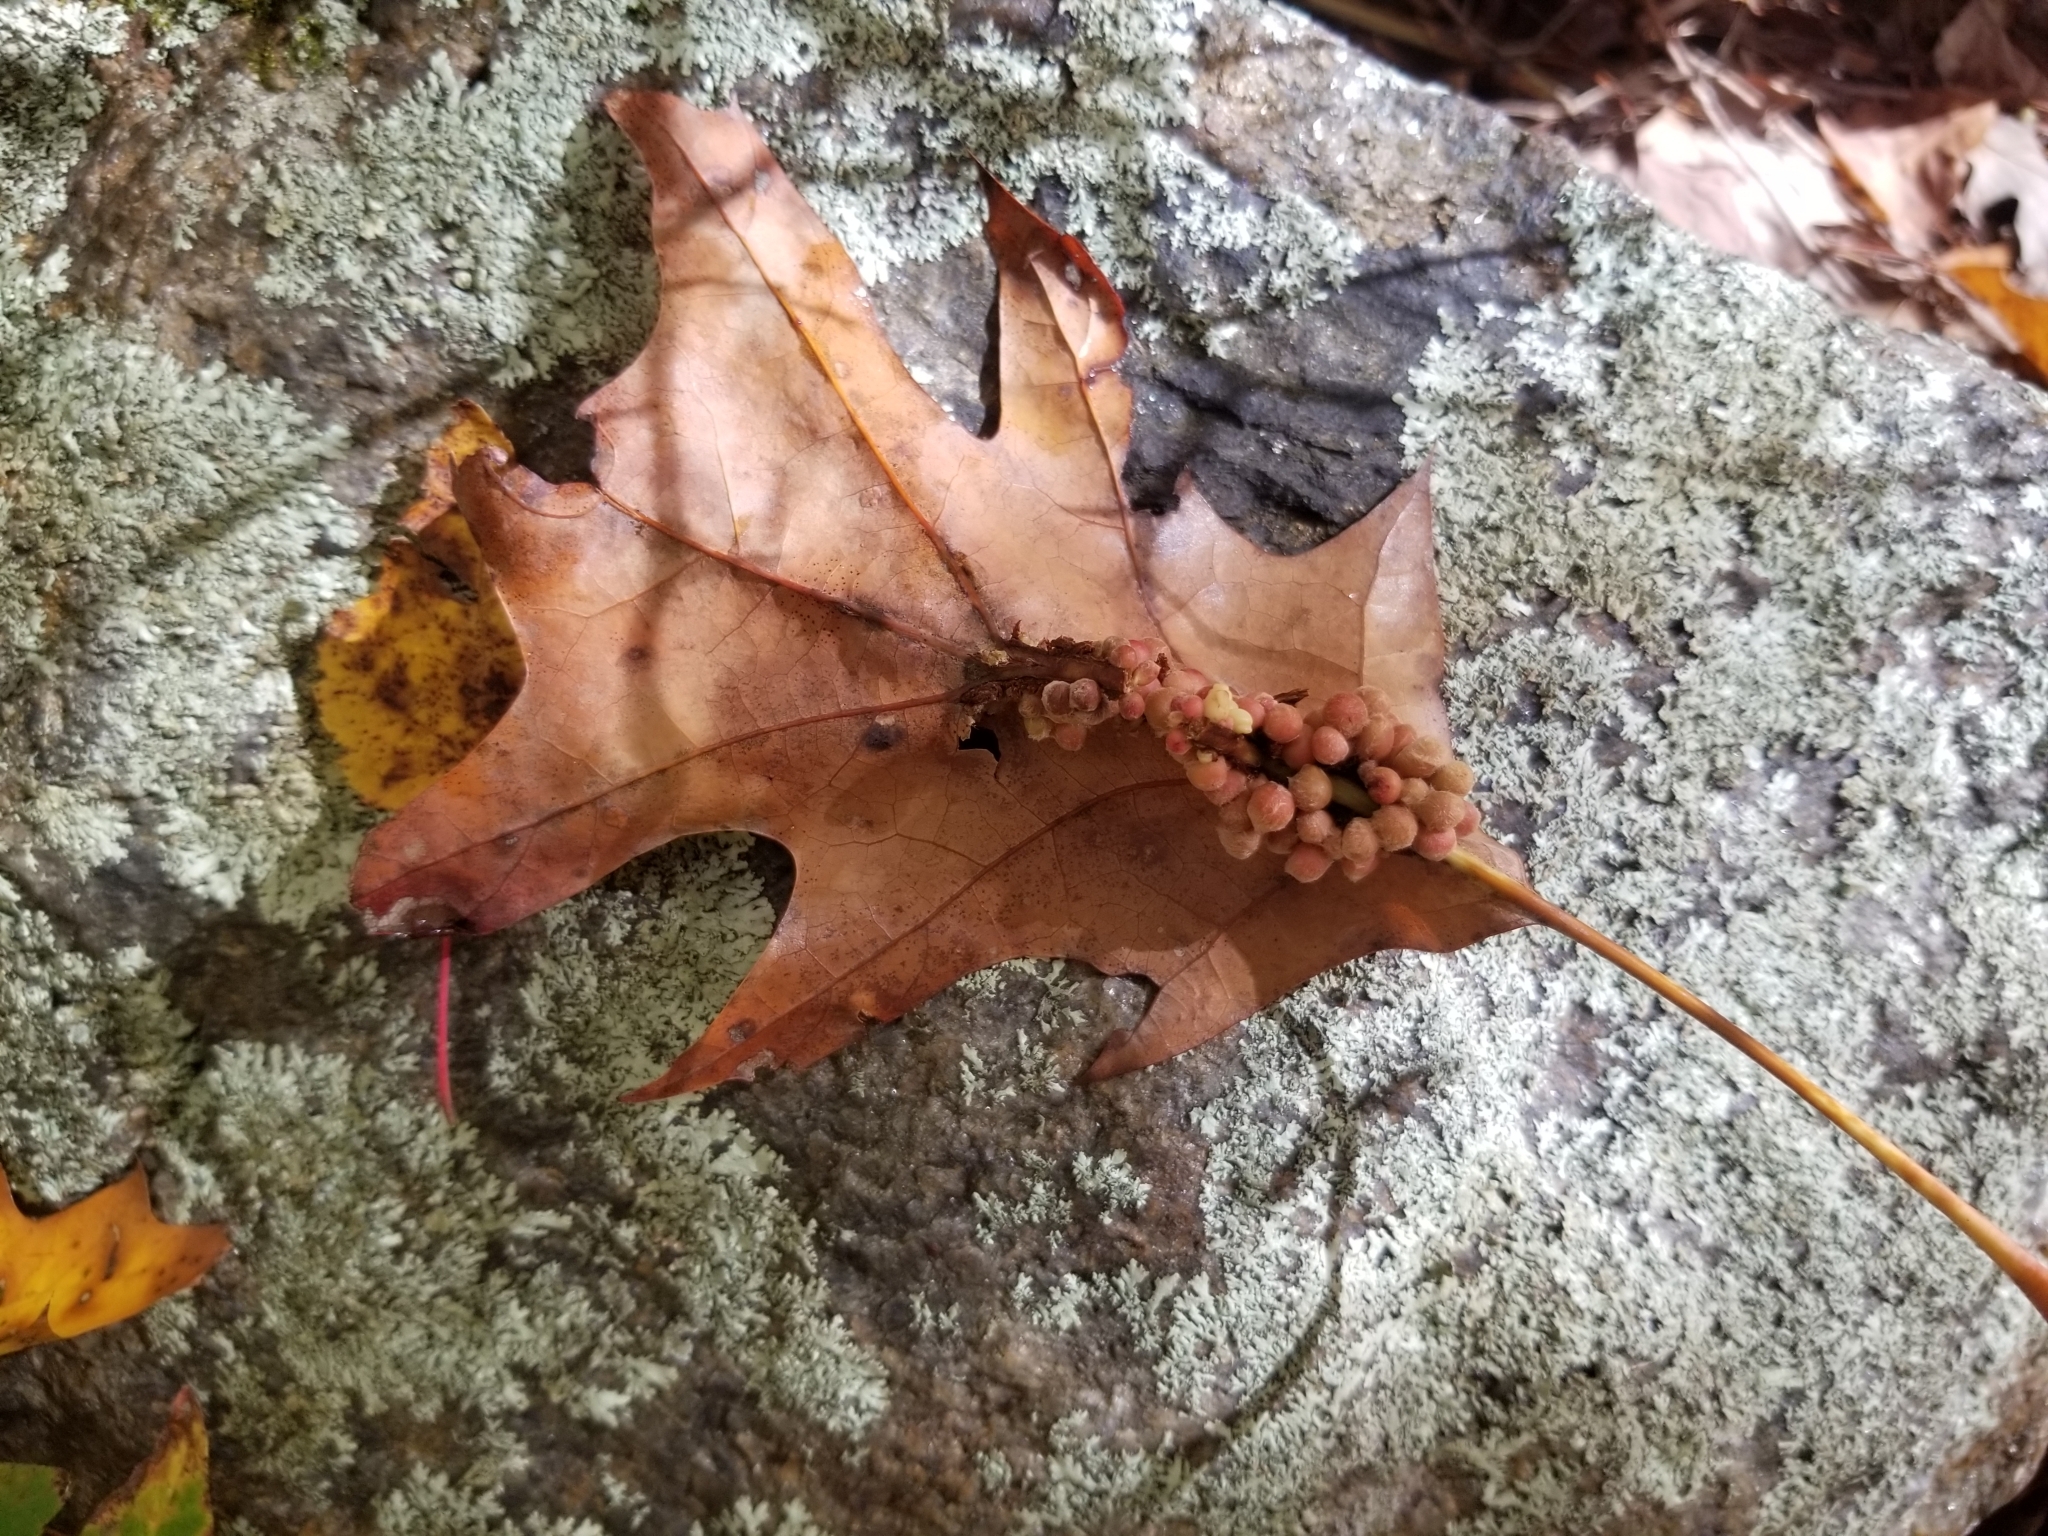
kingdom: Animalia
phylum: Arthropoda
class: Insecta
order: Hymenoptera
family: Cynipidae
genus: Callirhytis
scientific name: Callirhytis
